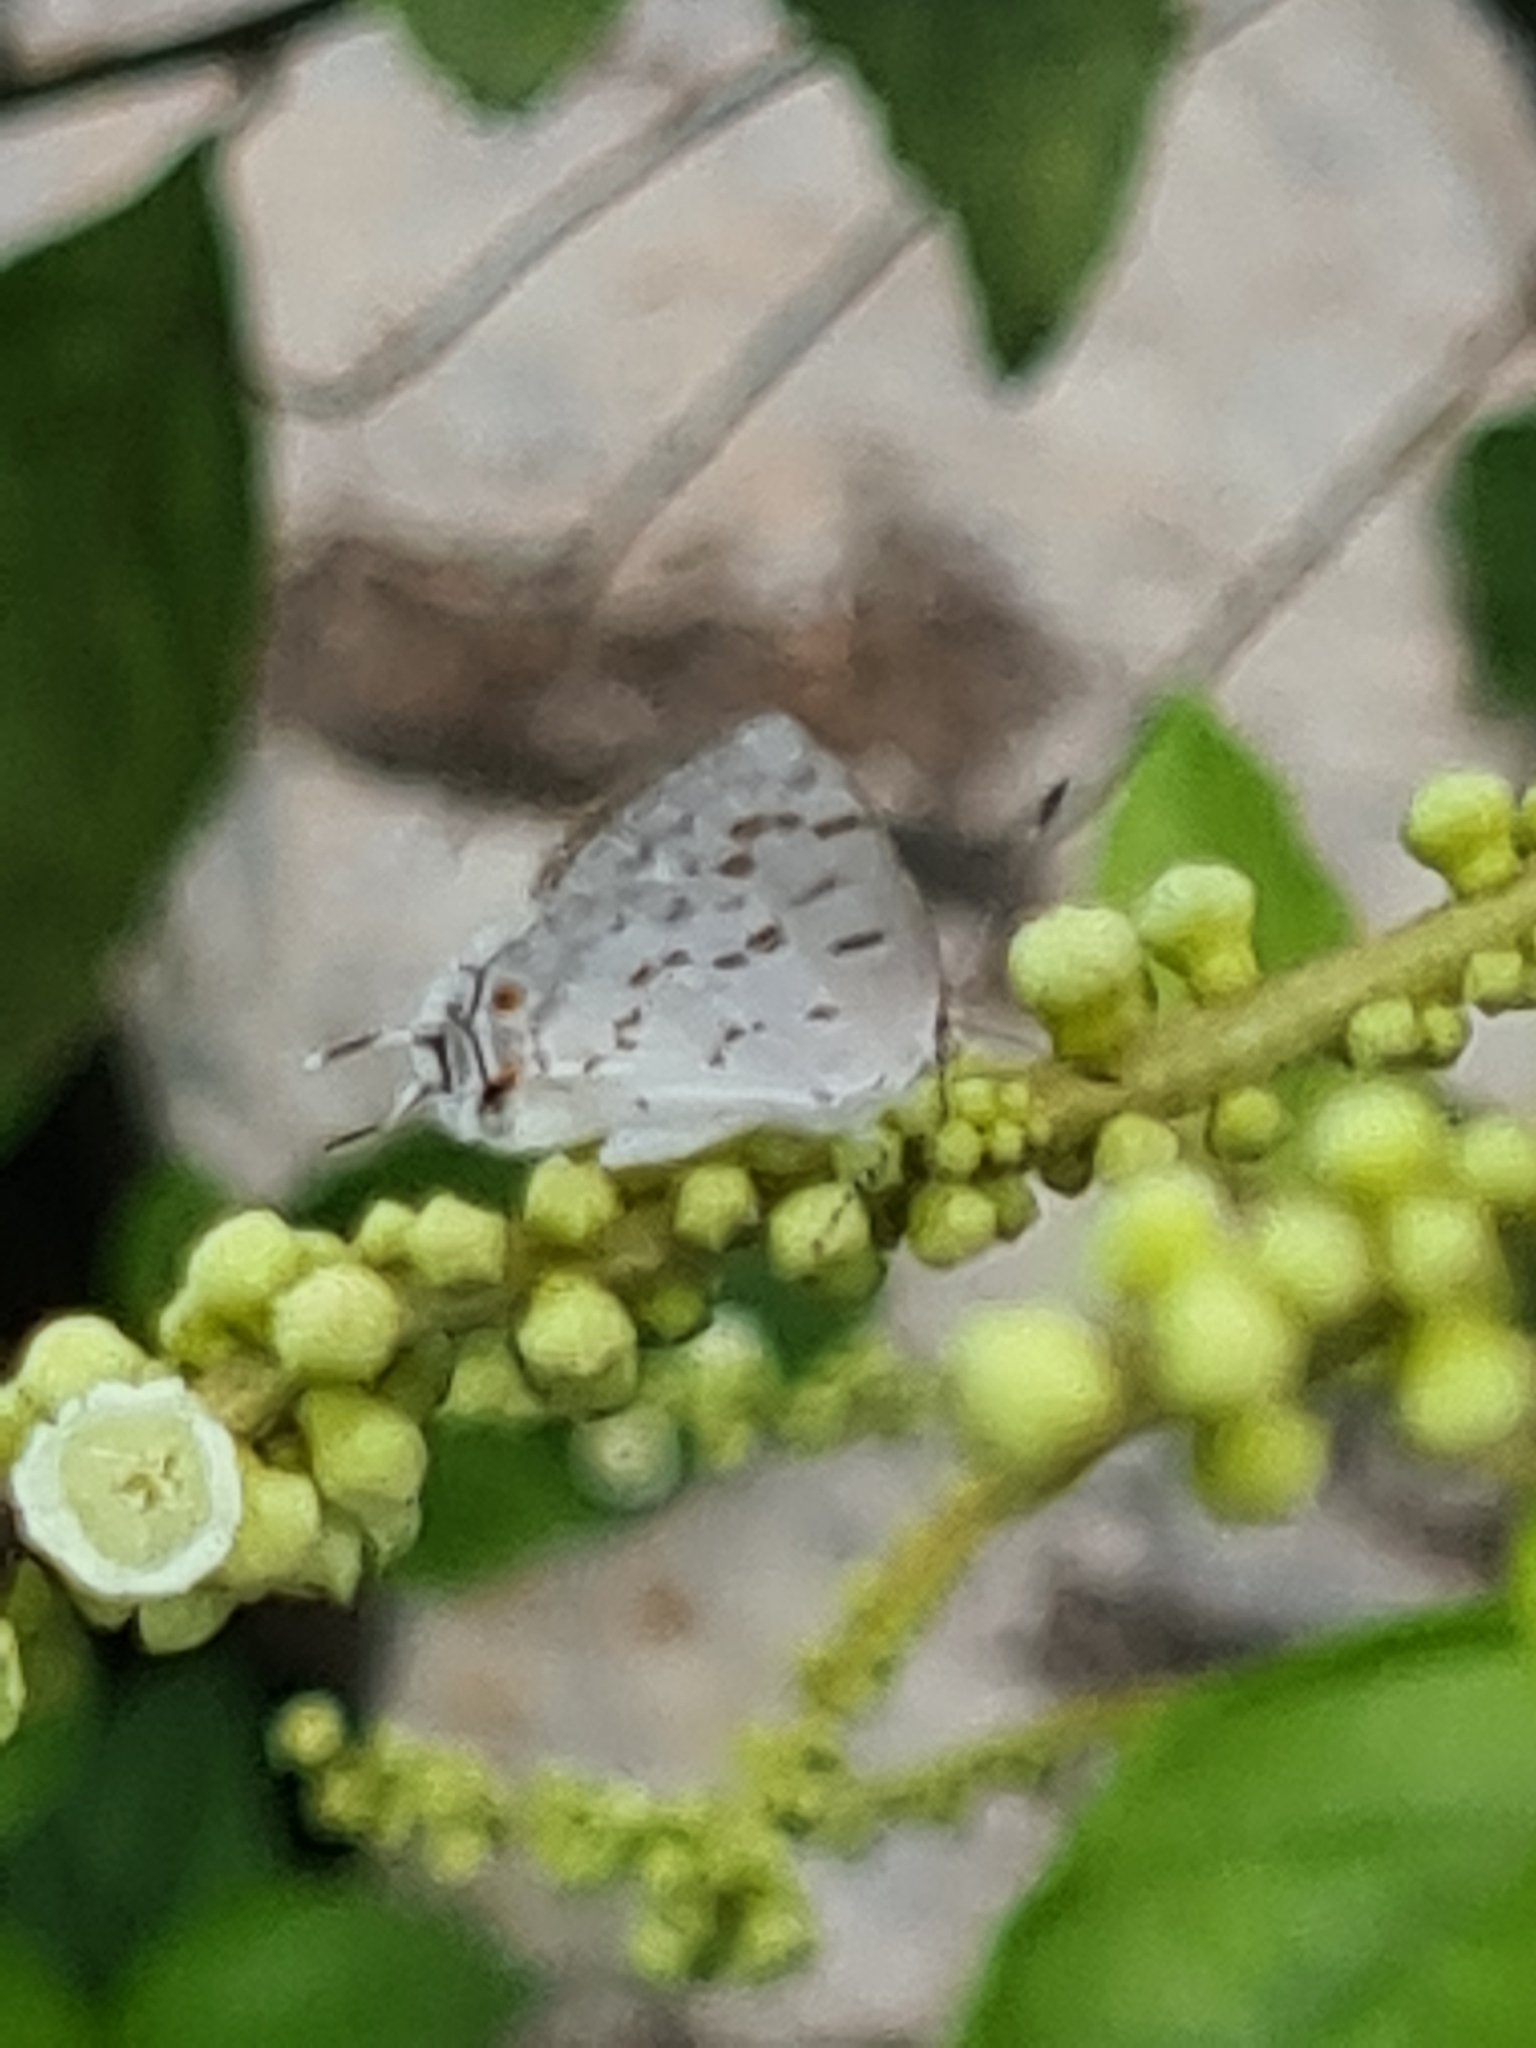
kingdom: Animalia
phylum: Arthropoda
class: Insecta
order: Lepidoptera
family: Lycaenidae
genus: Thecla
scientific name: Thecla una
